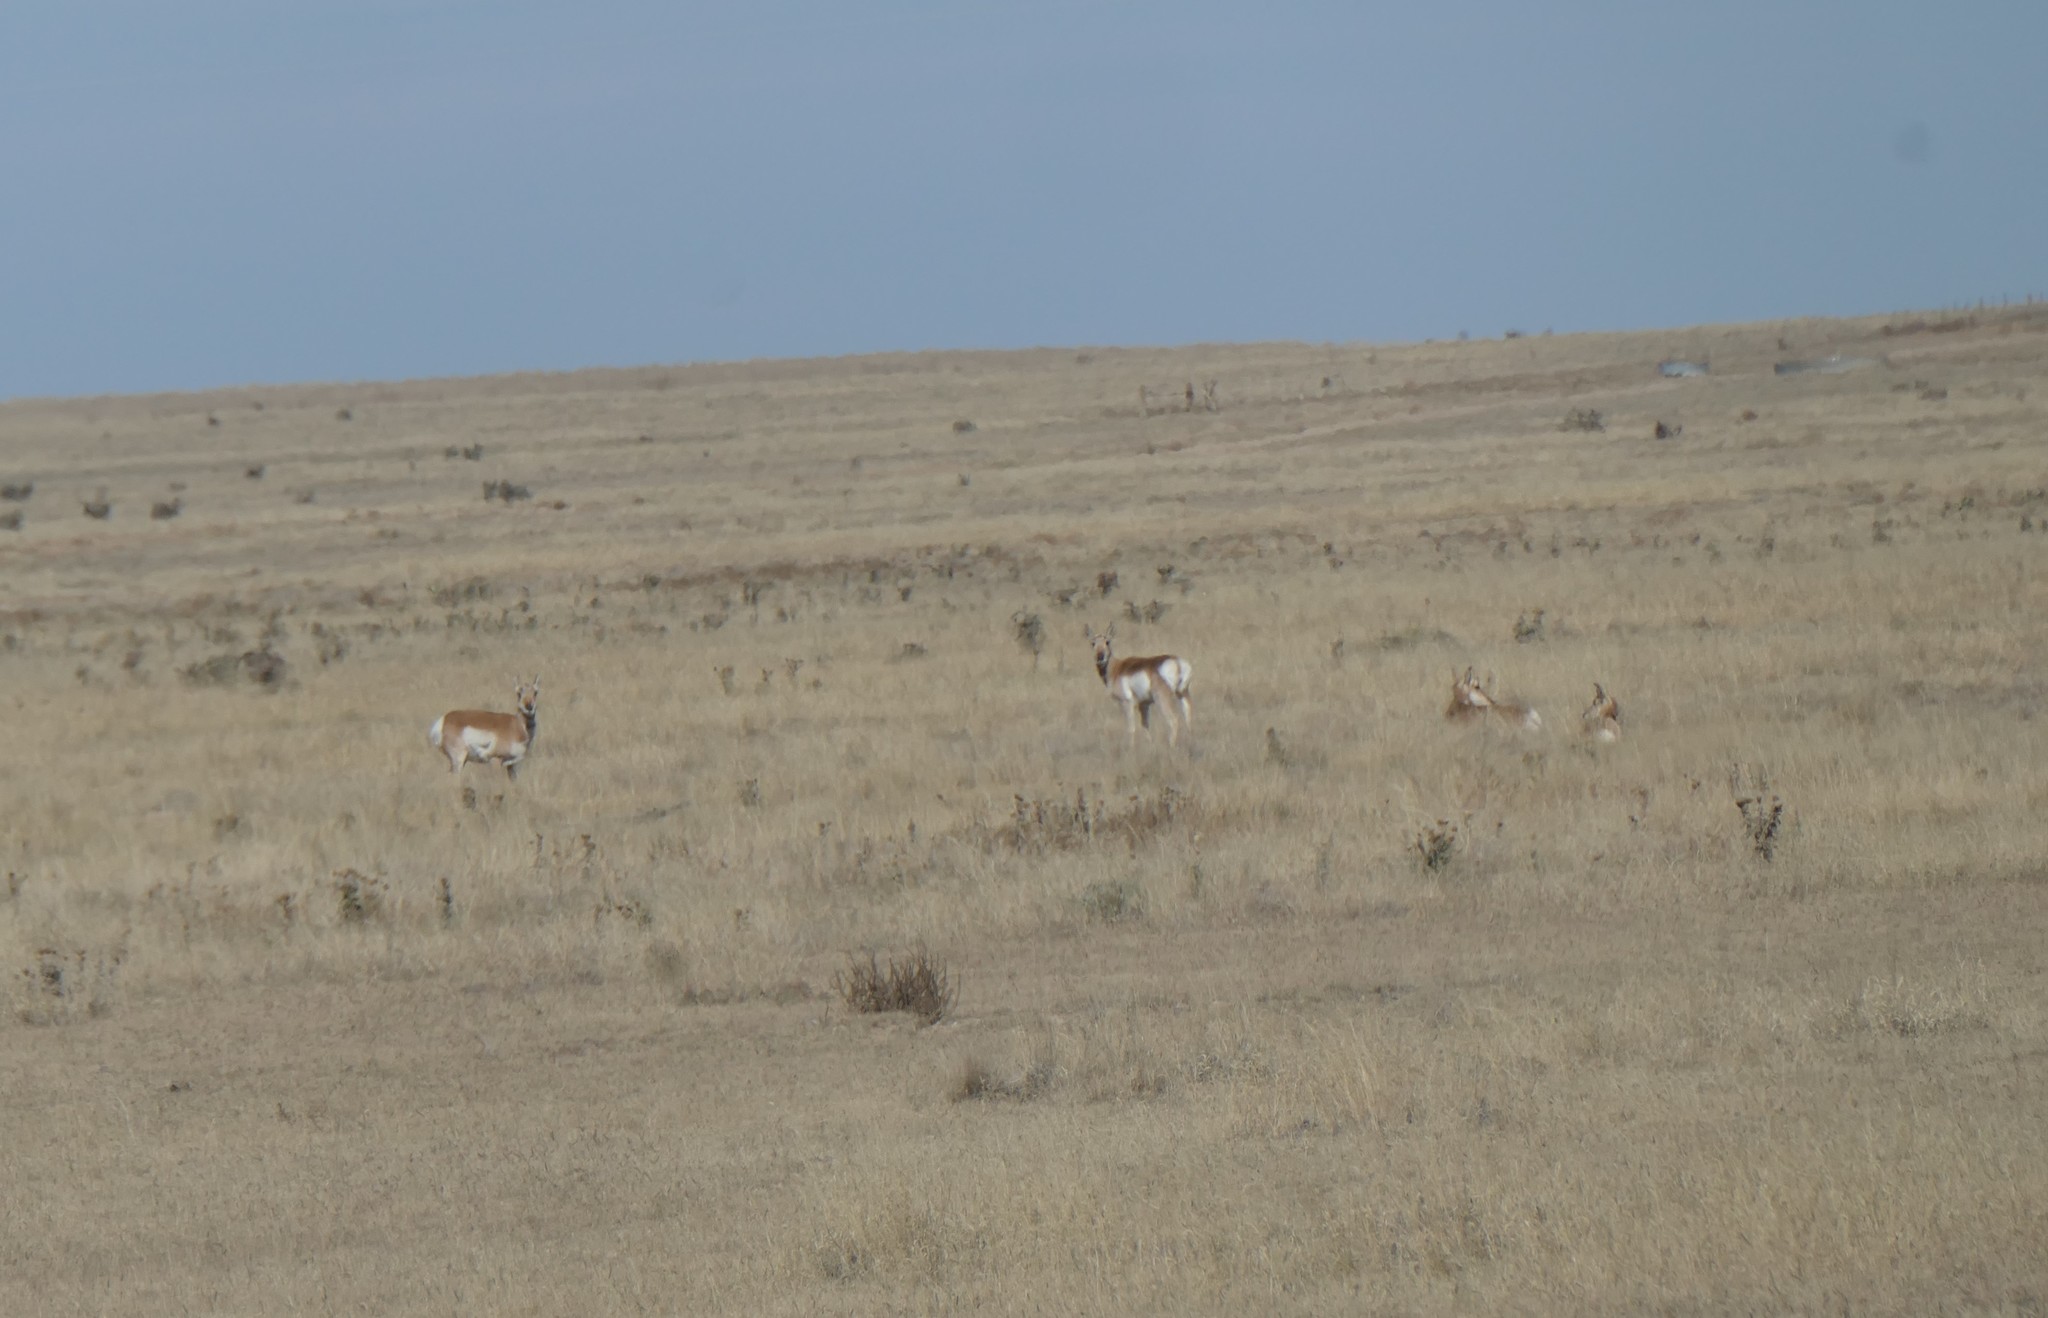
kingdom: Animalia
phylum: Chordata
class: Mammalia
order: Artiodactyla
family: Antilocapridae
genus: Antilocapra
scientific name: Antilocapra americana
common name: Pronghorn
